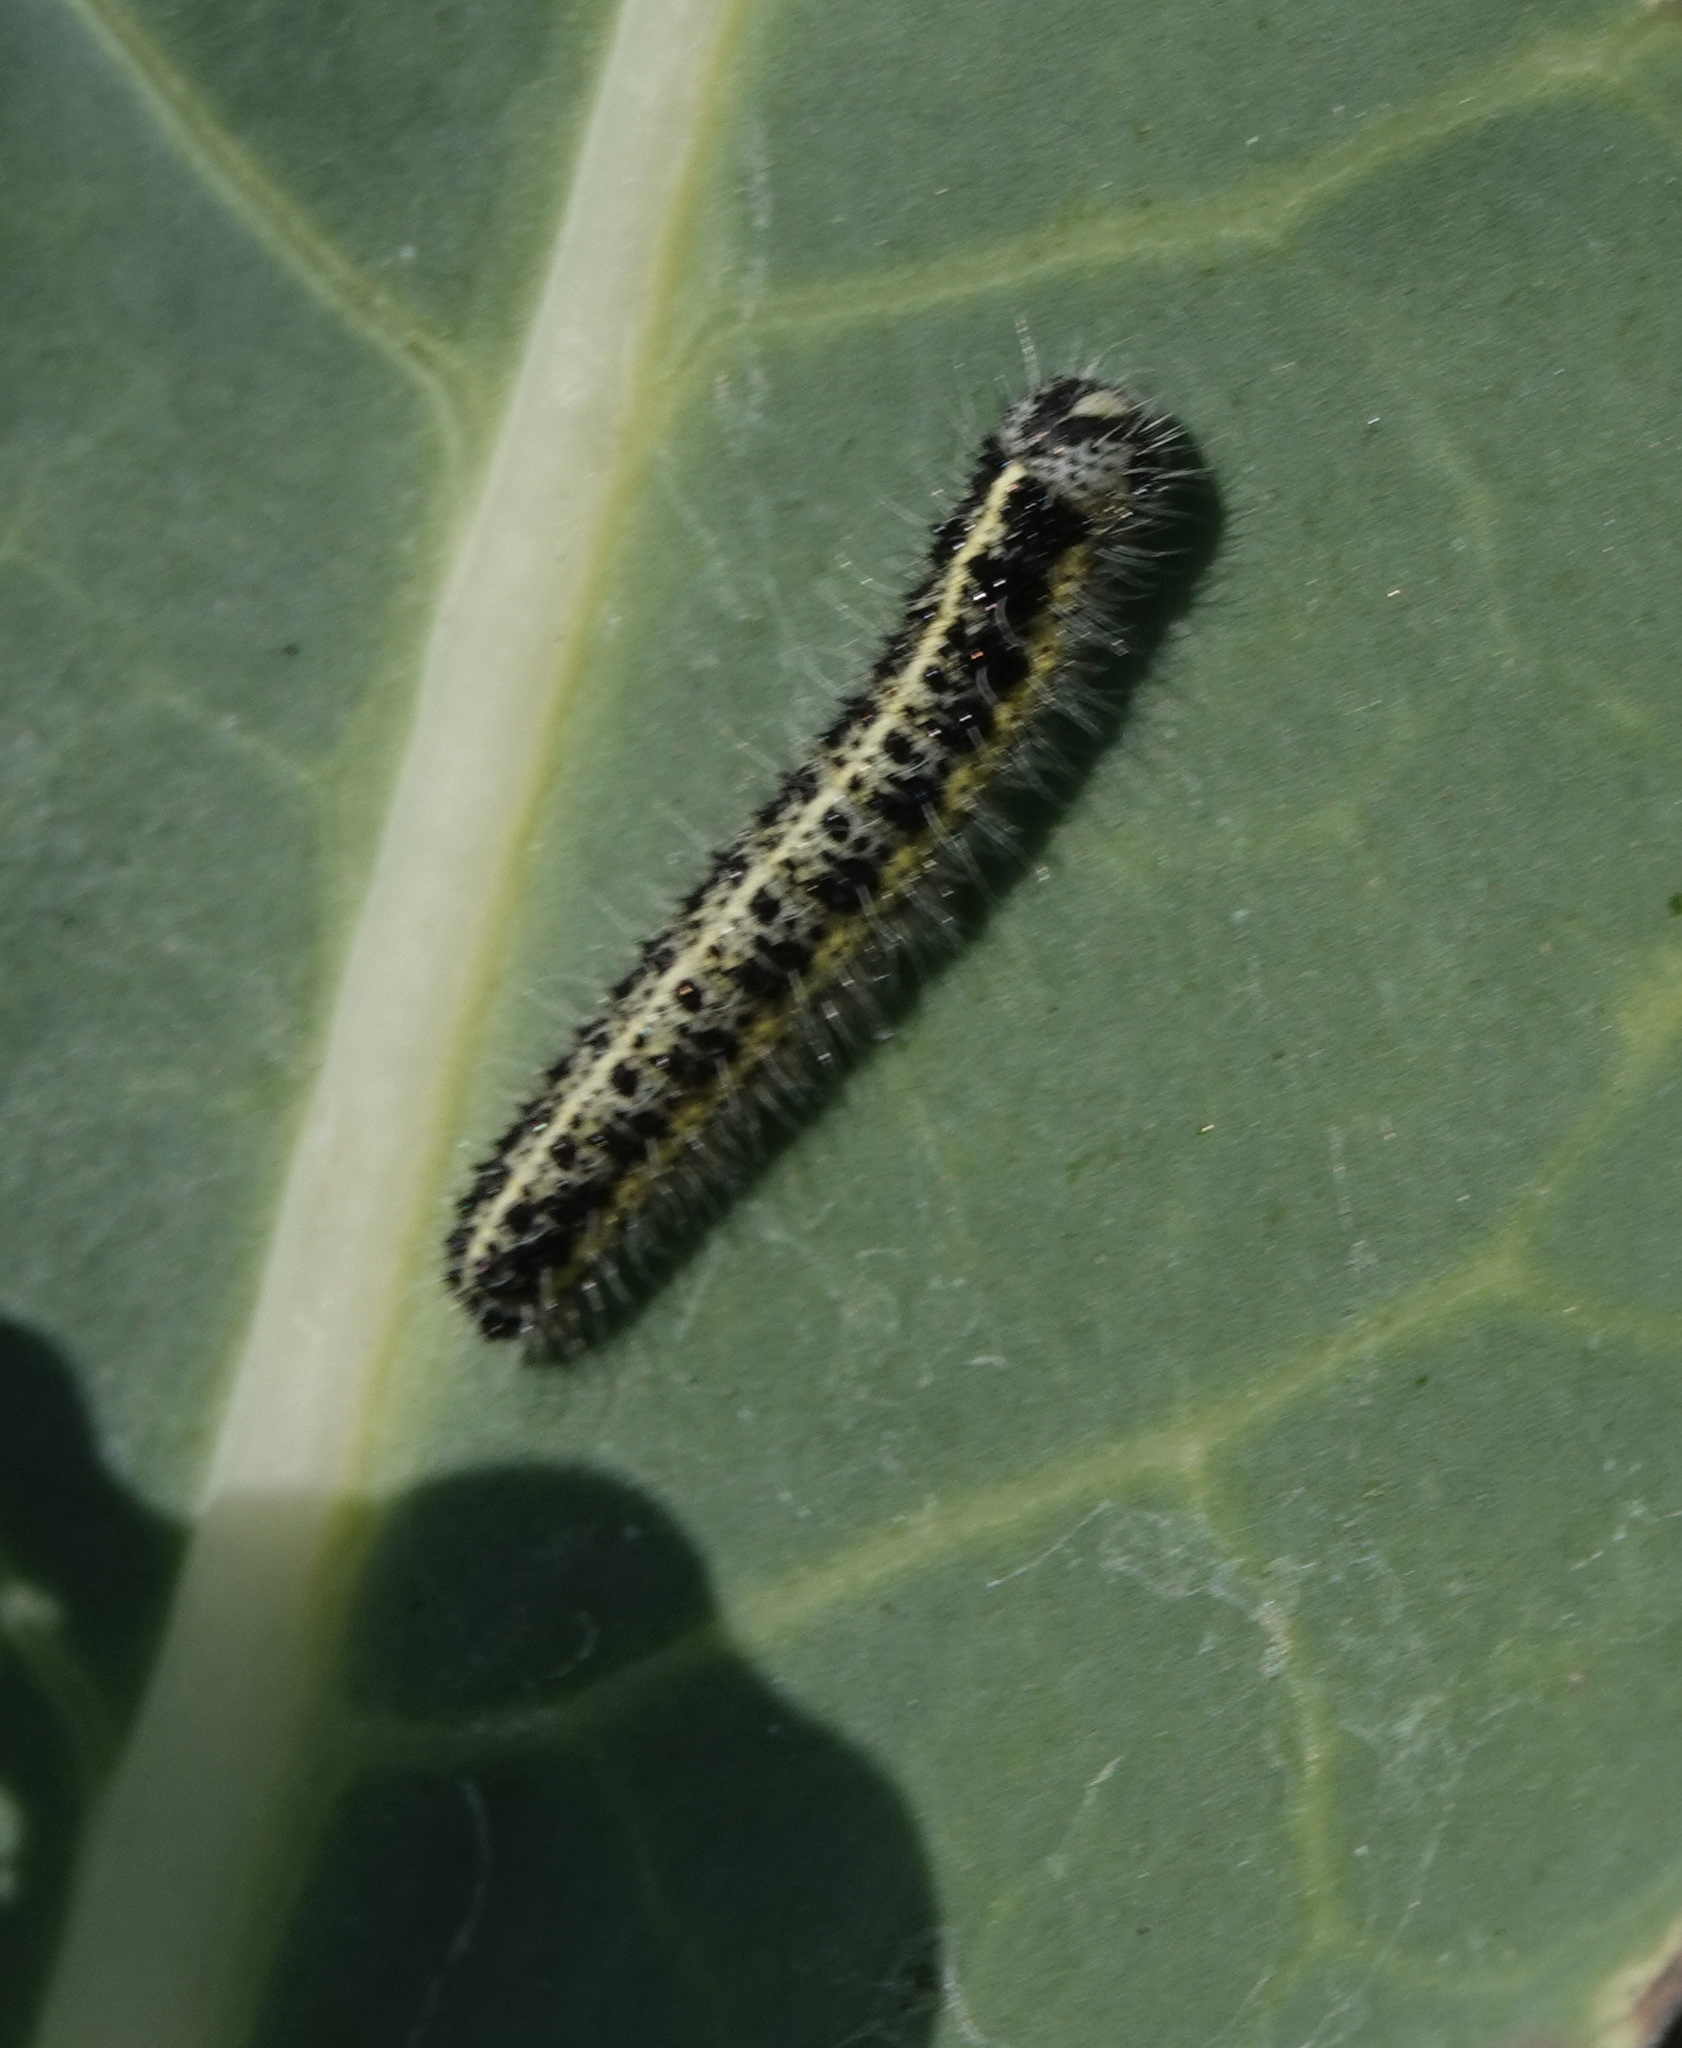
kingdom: Animalia
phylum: Arthropoda
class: Insecta
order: Lepidoptera
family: Pieridae
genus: Pieris
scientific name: Pieris brassicae
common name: Large white
